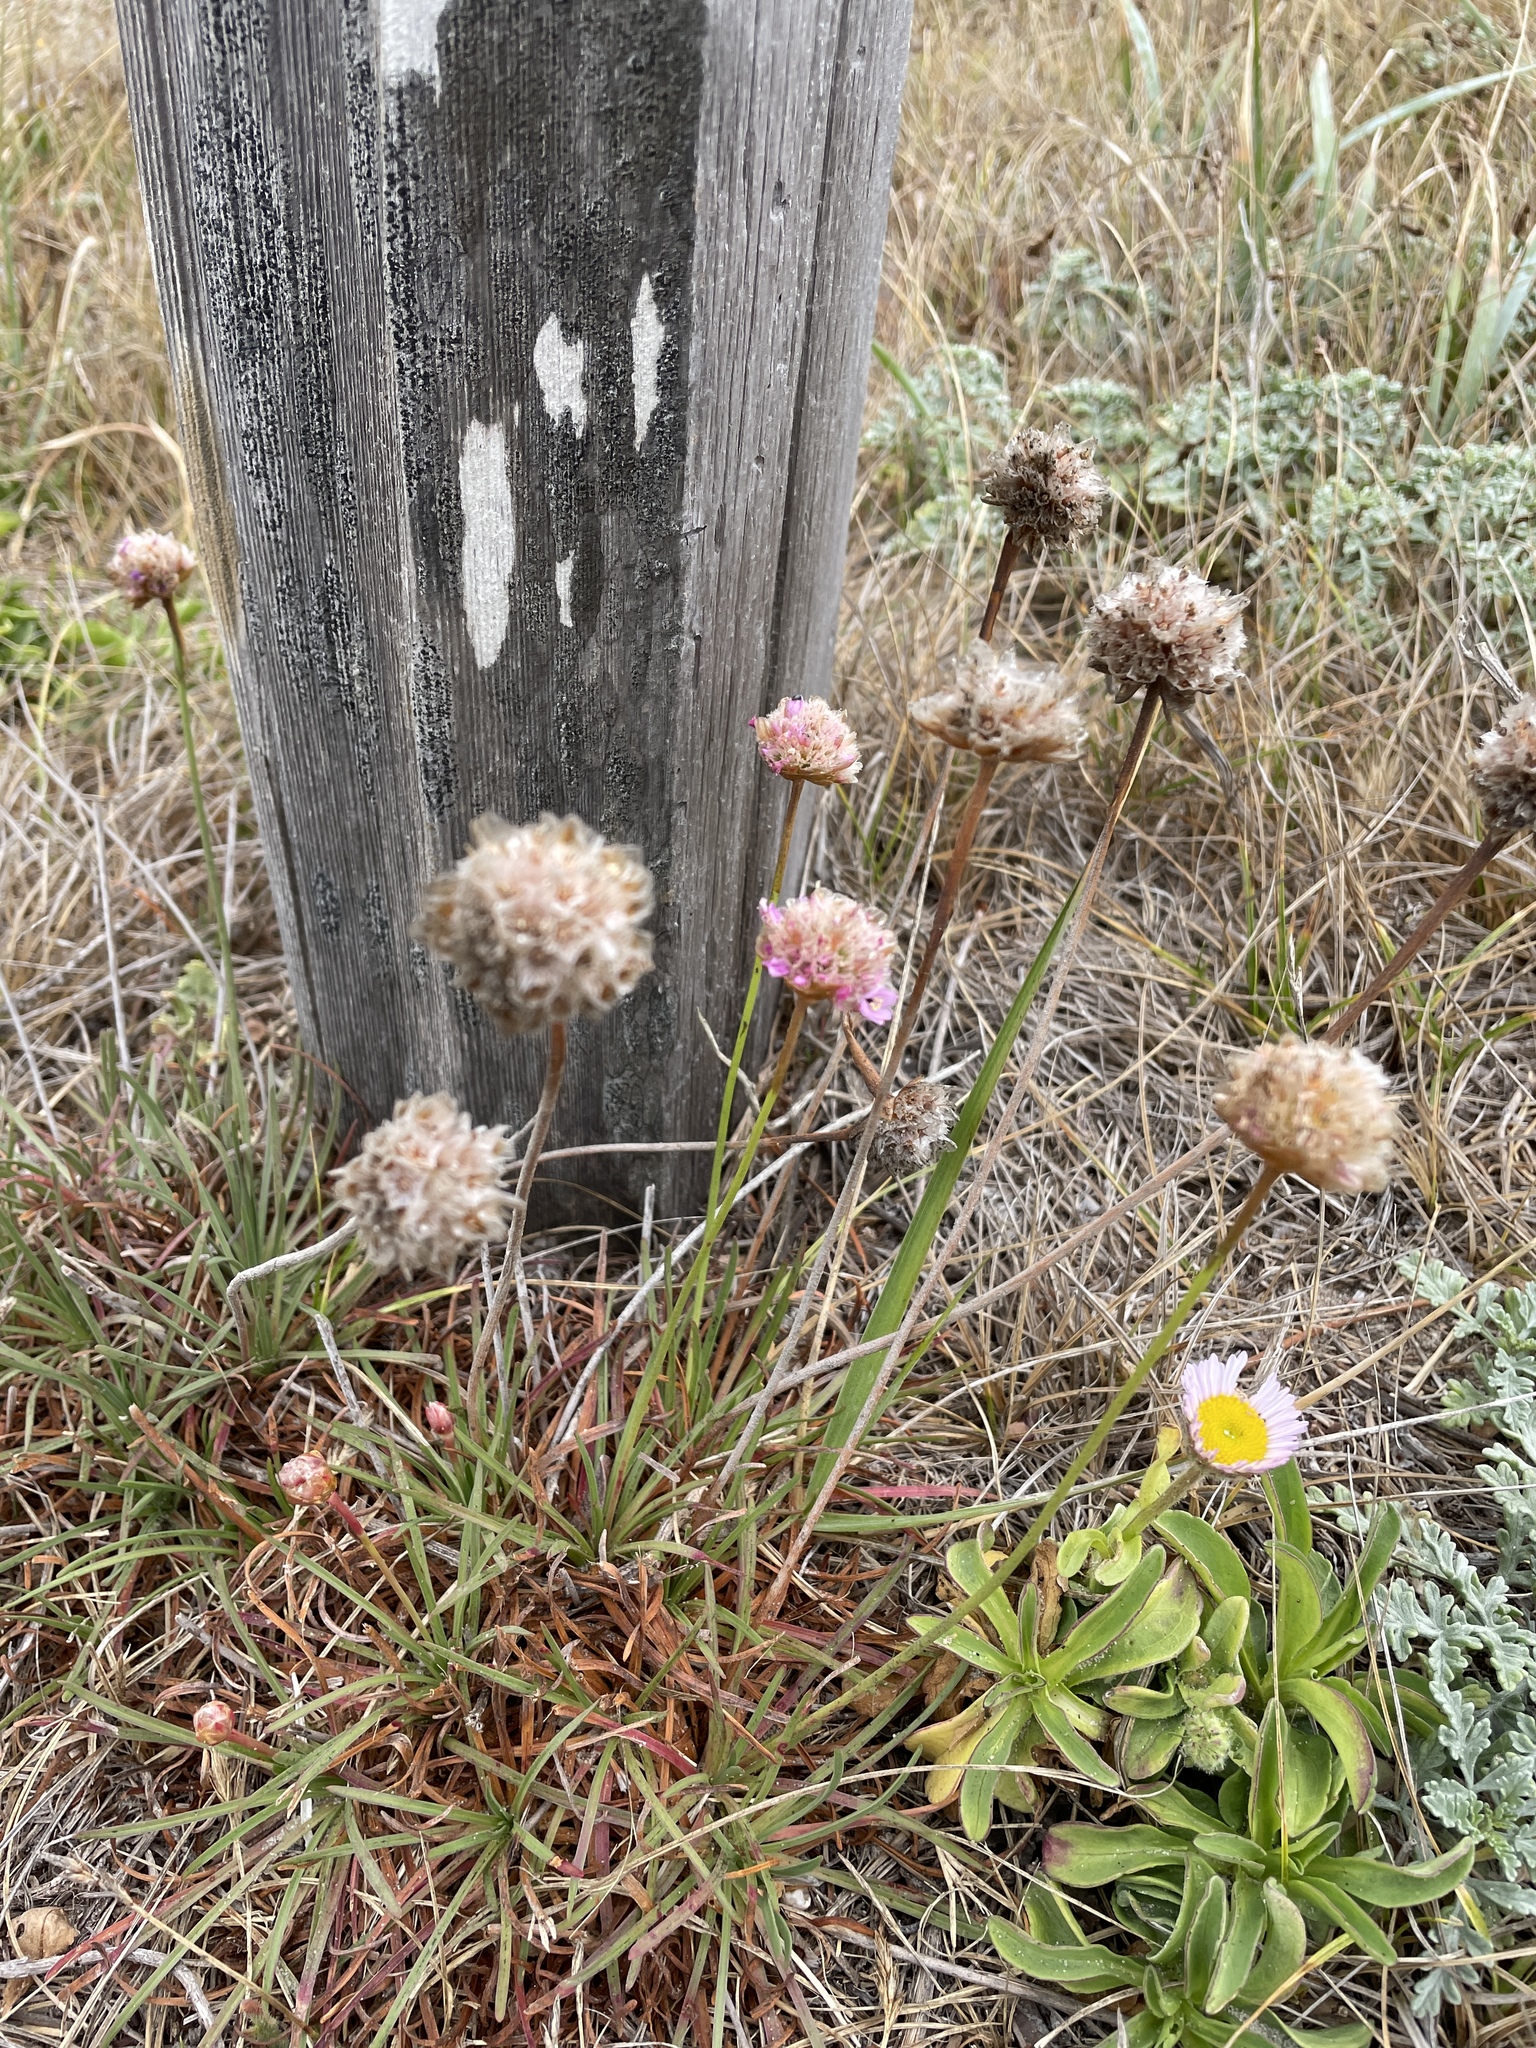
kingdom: Plantae
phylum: Tracheophyta
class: Magnoliopsida
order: Caryophyllales
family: Plumbaginaceae
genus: Armeria
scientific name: Armeria maritima
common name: Thrift
